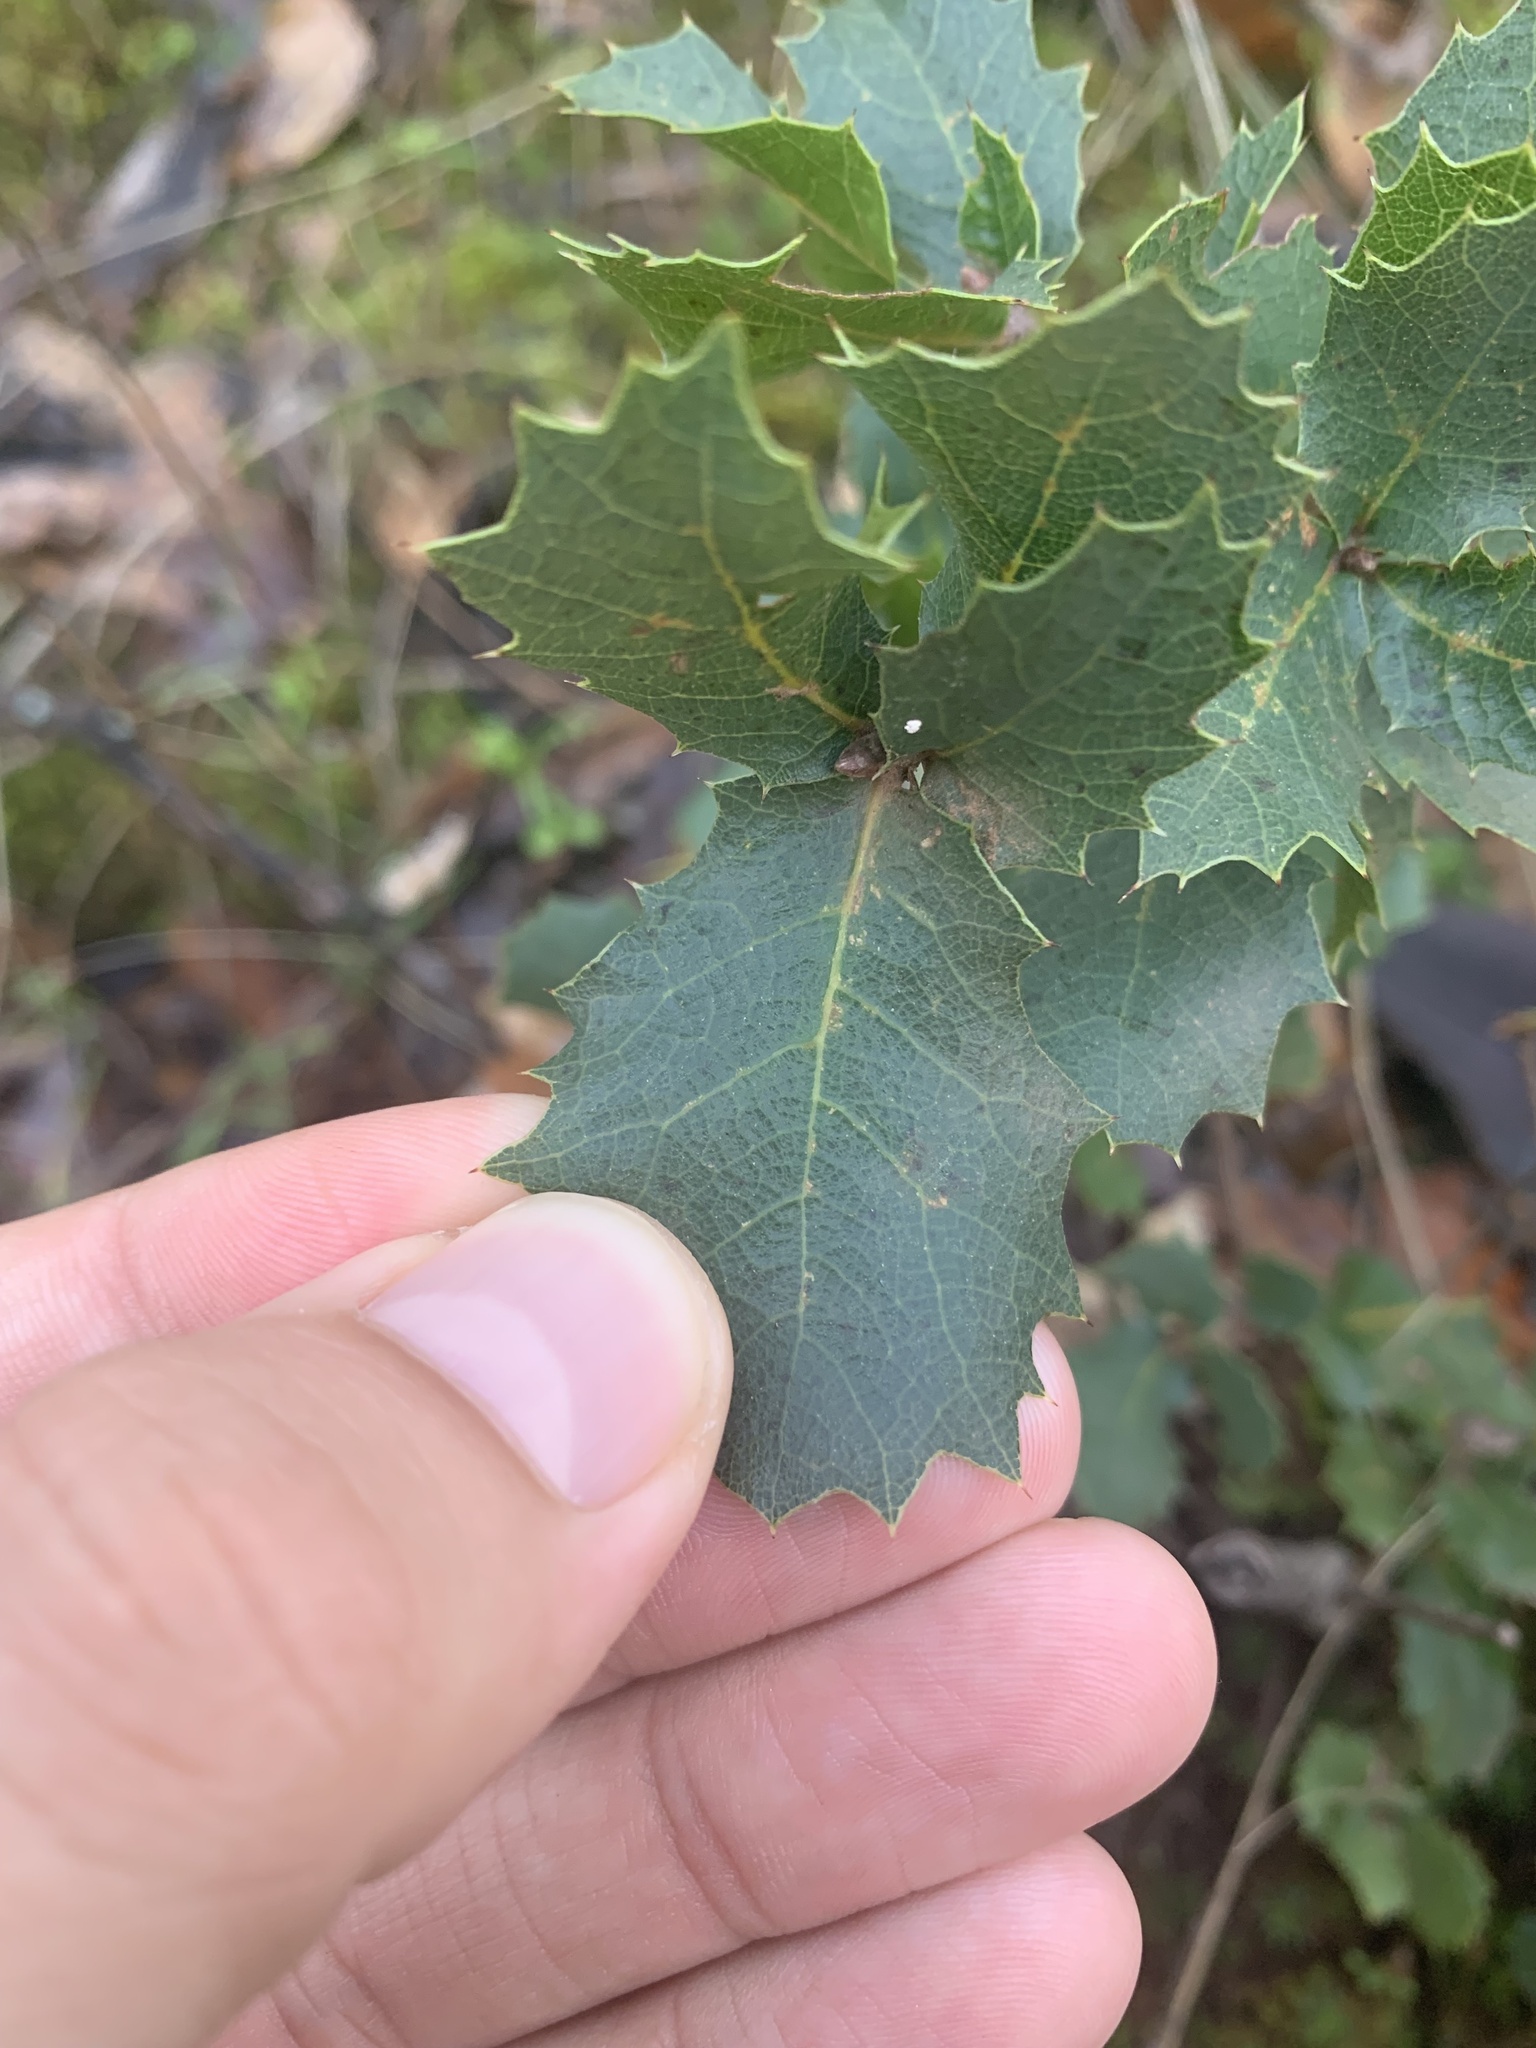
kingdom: Plantae
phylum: Tracheophyta
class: Magnoliopsida
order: Fagales
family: Fagaceae
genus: Quercus
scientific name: Quercus wislizeni
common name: Interior live oak
